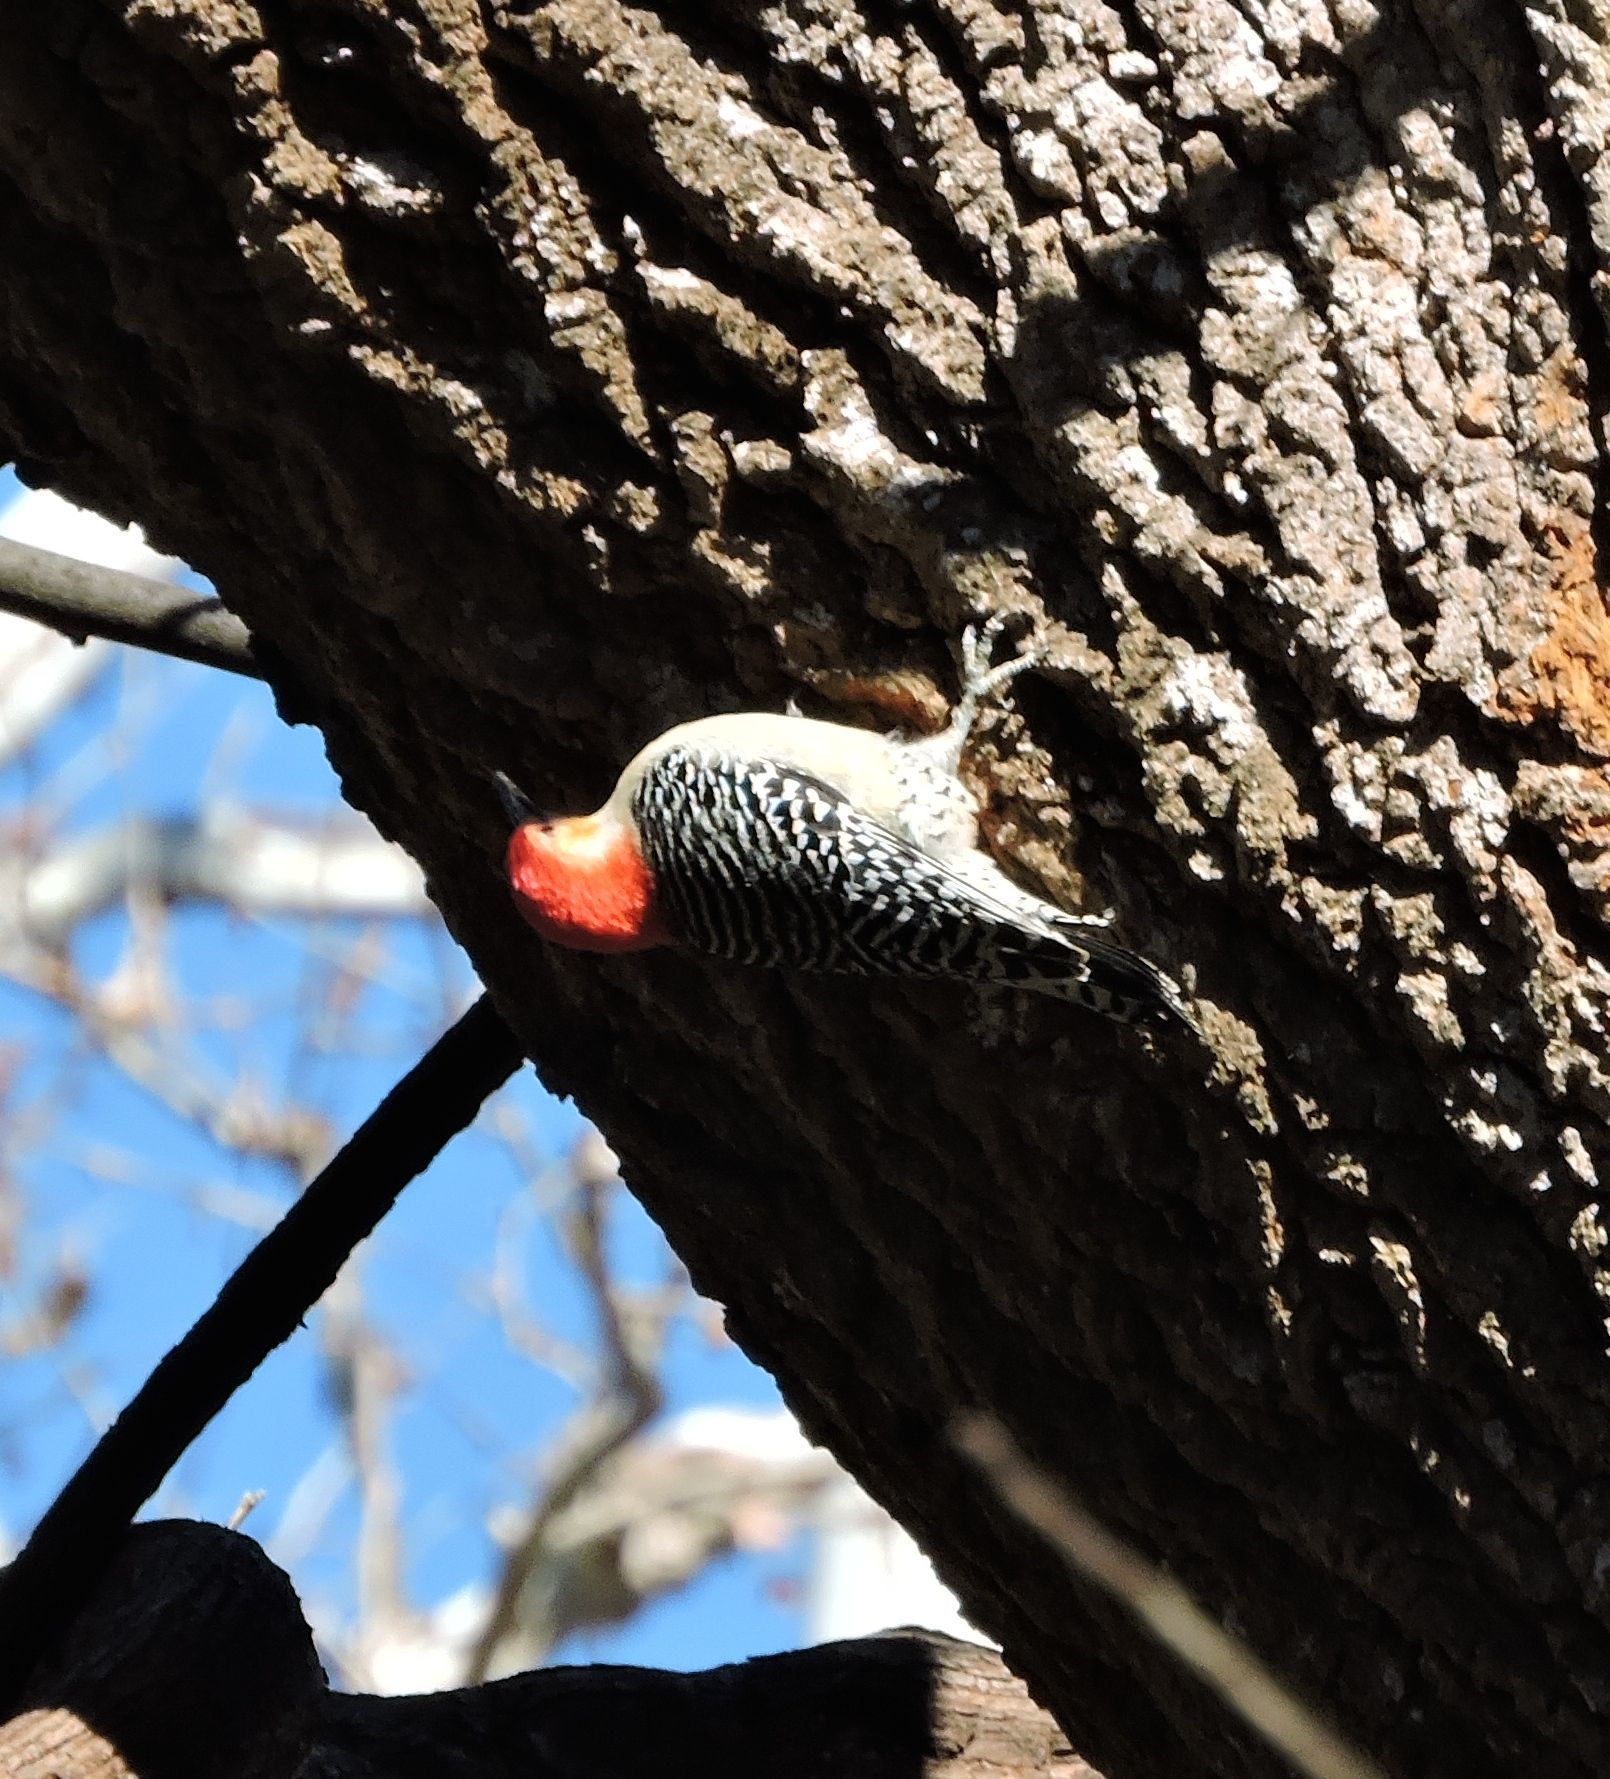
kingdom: Animalia
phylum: Chordata
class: Aves
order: Piciformes
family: Picidae
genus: Melanerpes
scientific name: Melanerpes carolinus
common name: Red-bellied woodpecker
